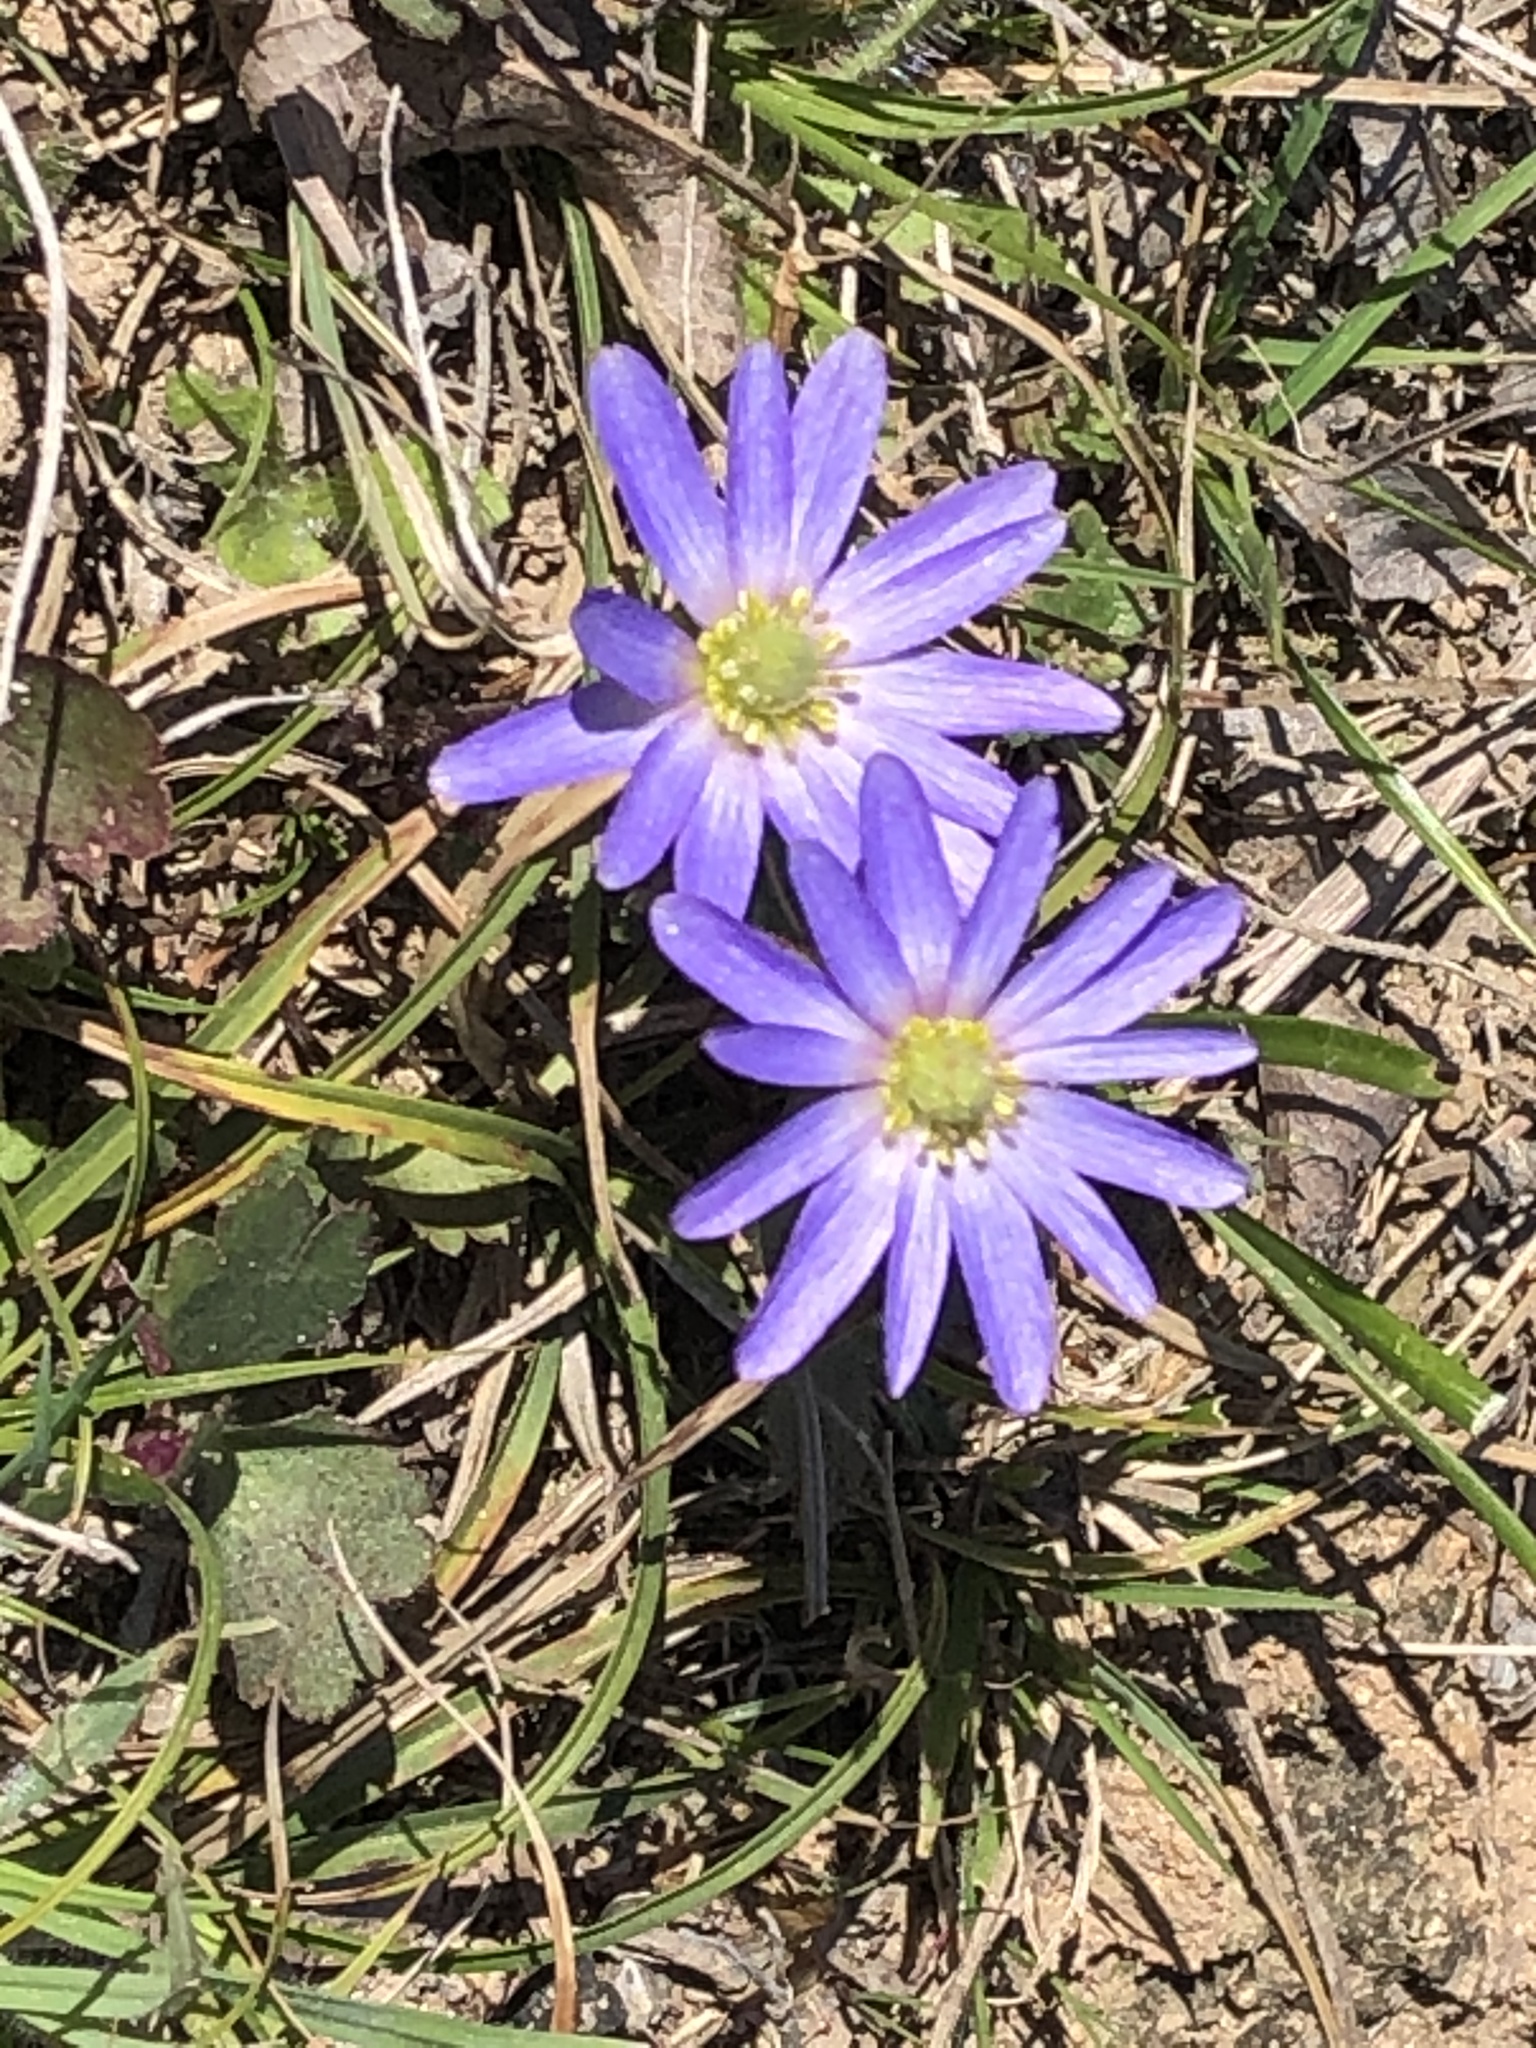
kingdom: Plantae
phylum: Tracheophyta
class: Magnoliopsida
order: Ranunculales
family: Ranunculaceae
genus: Anemone
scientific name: Anemone berlandieri
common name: Ten-petal anemone
